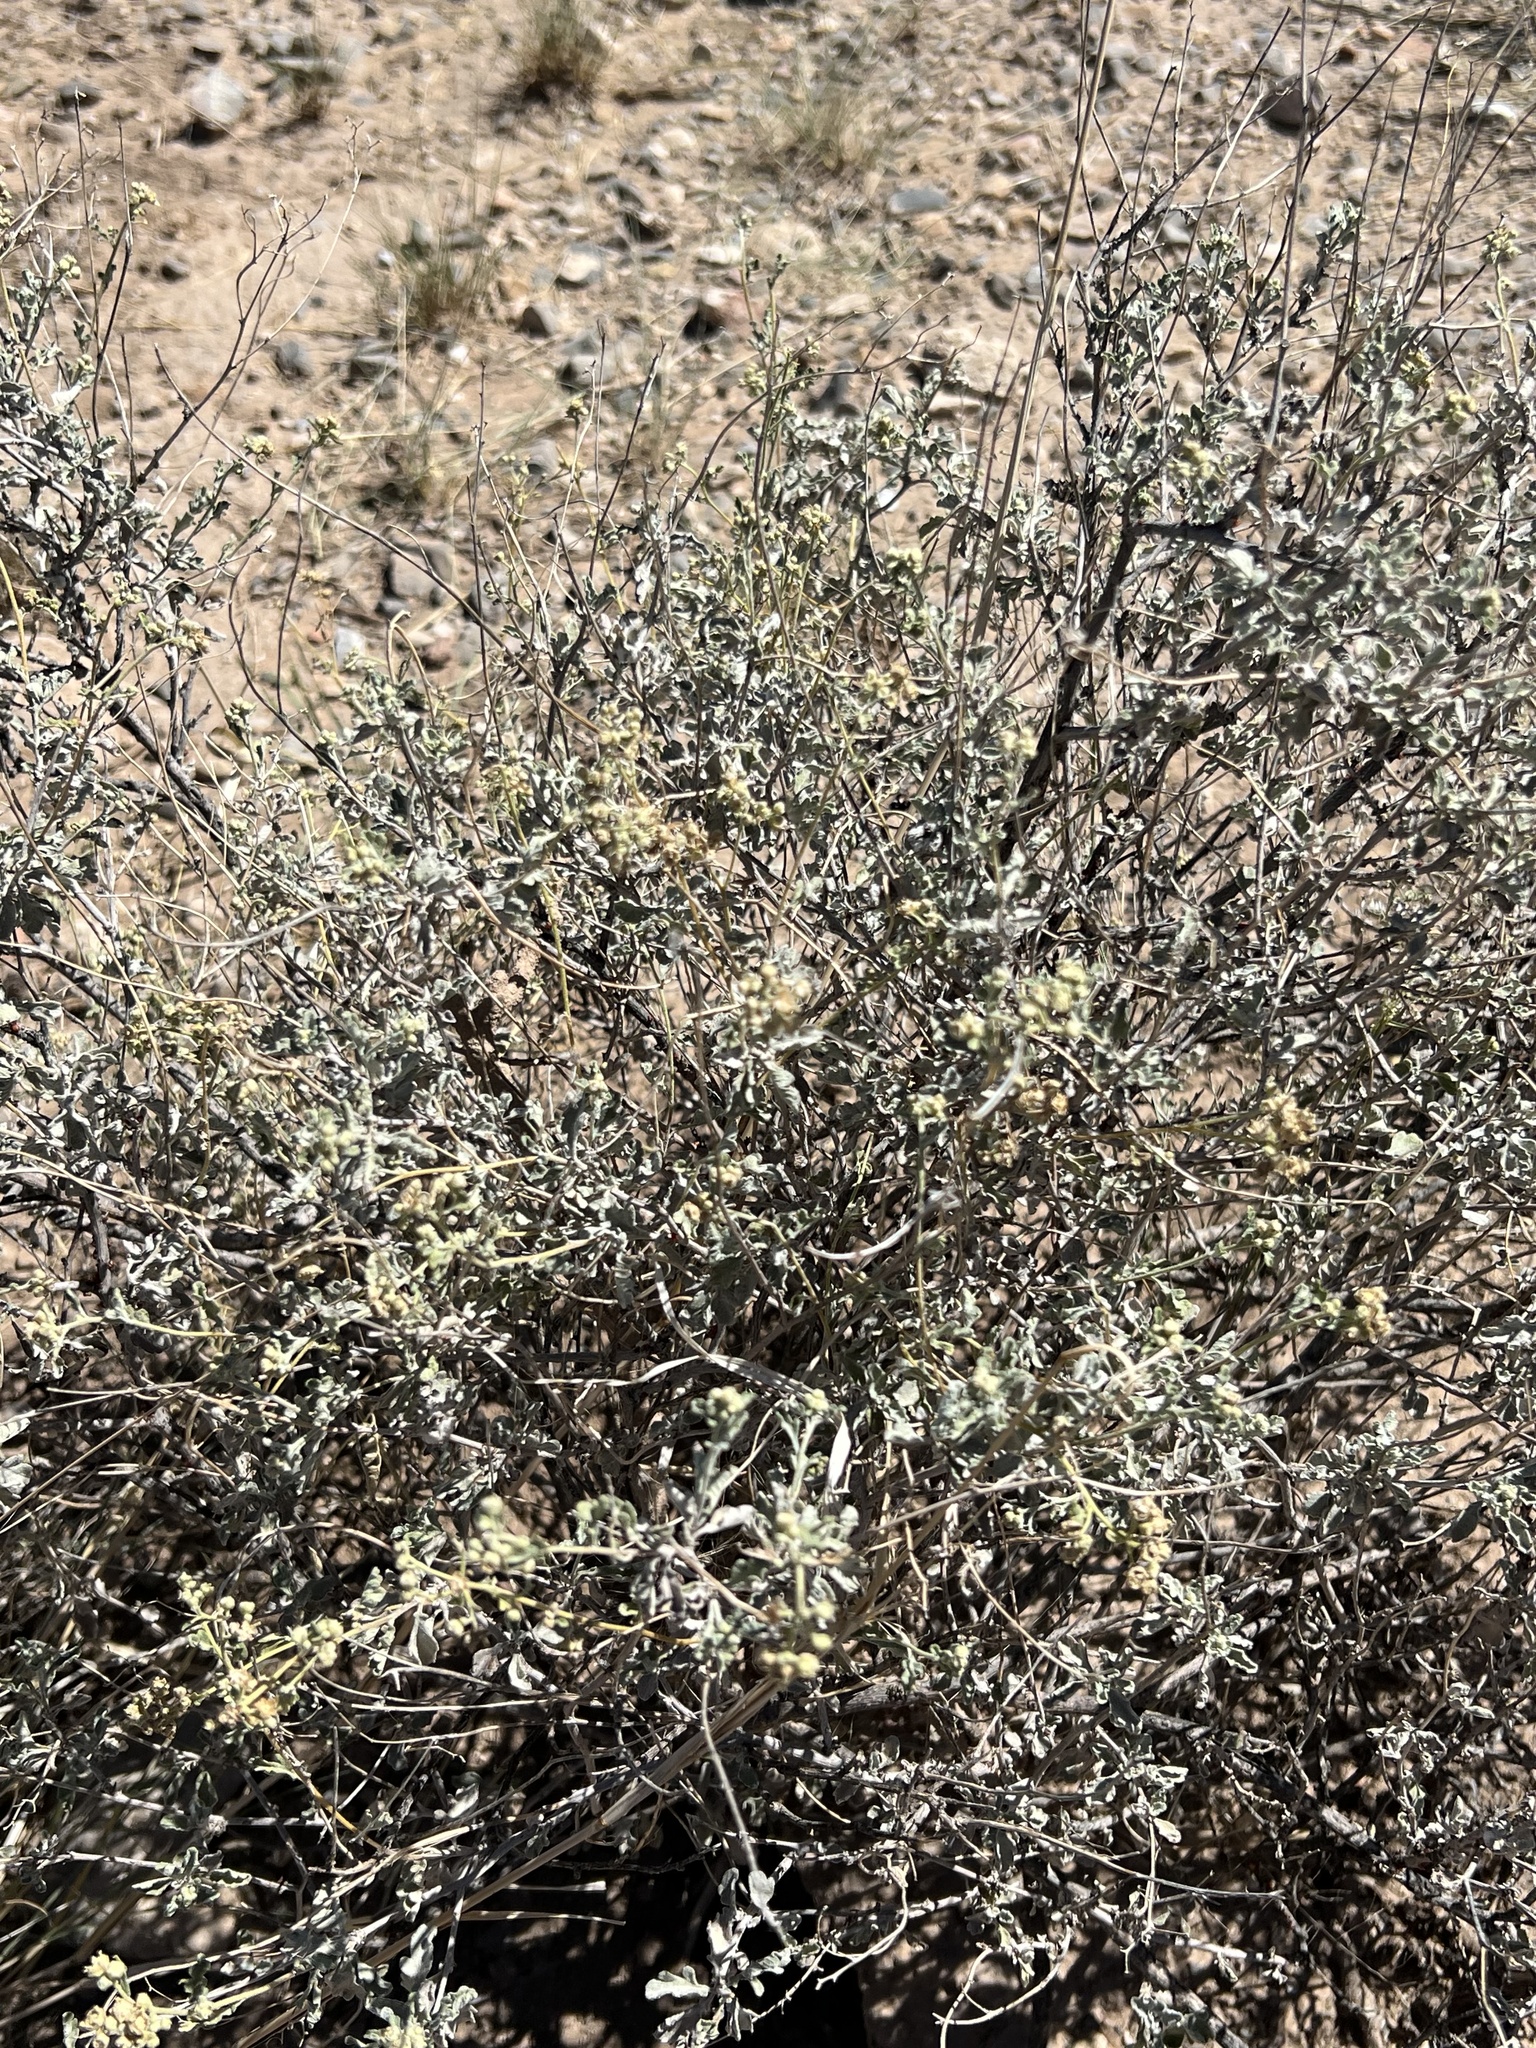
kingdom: Plantae
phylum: Tracheophyta
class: Magnoliopsida
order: Asterales
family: Asteraceae
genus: Parthenium
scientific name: Parthenium incanum
